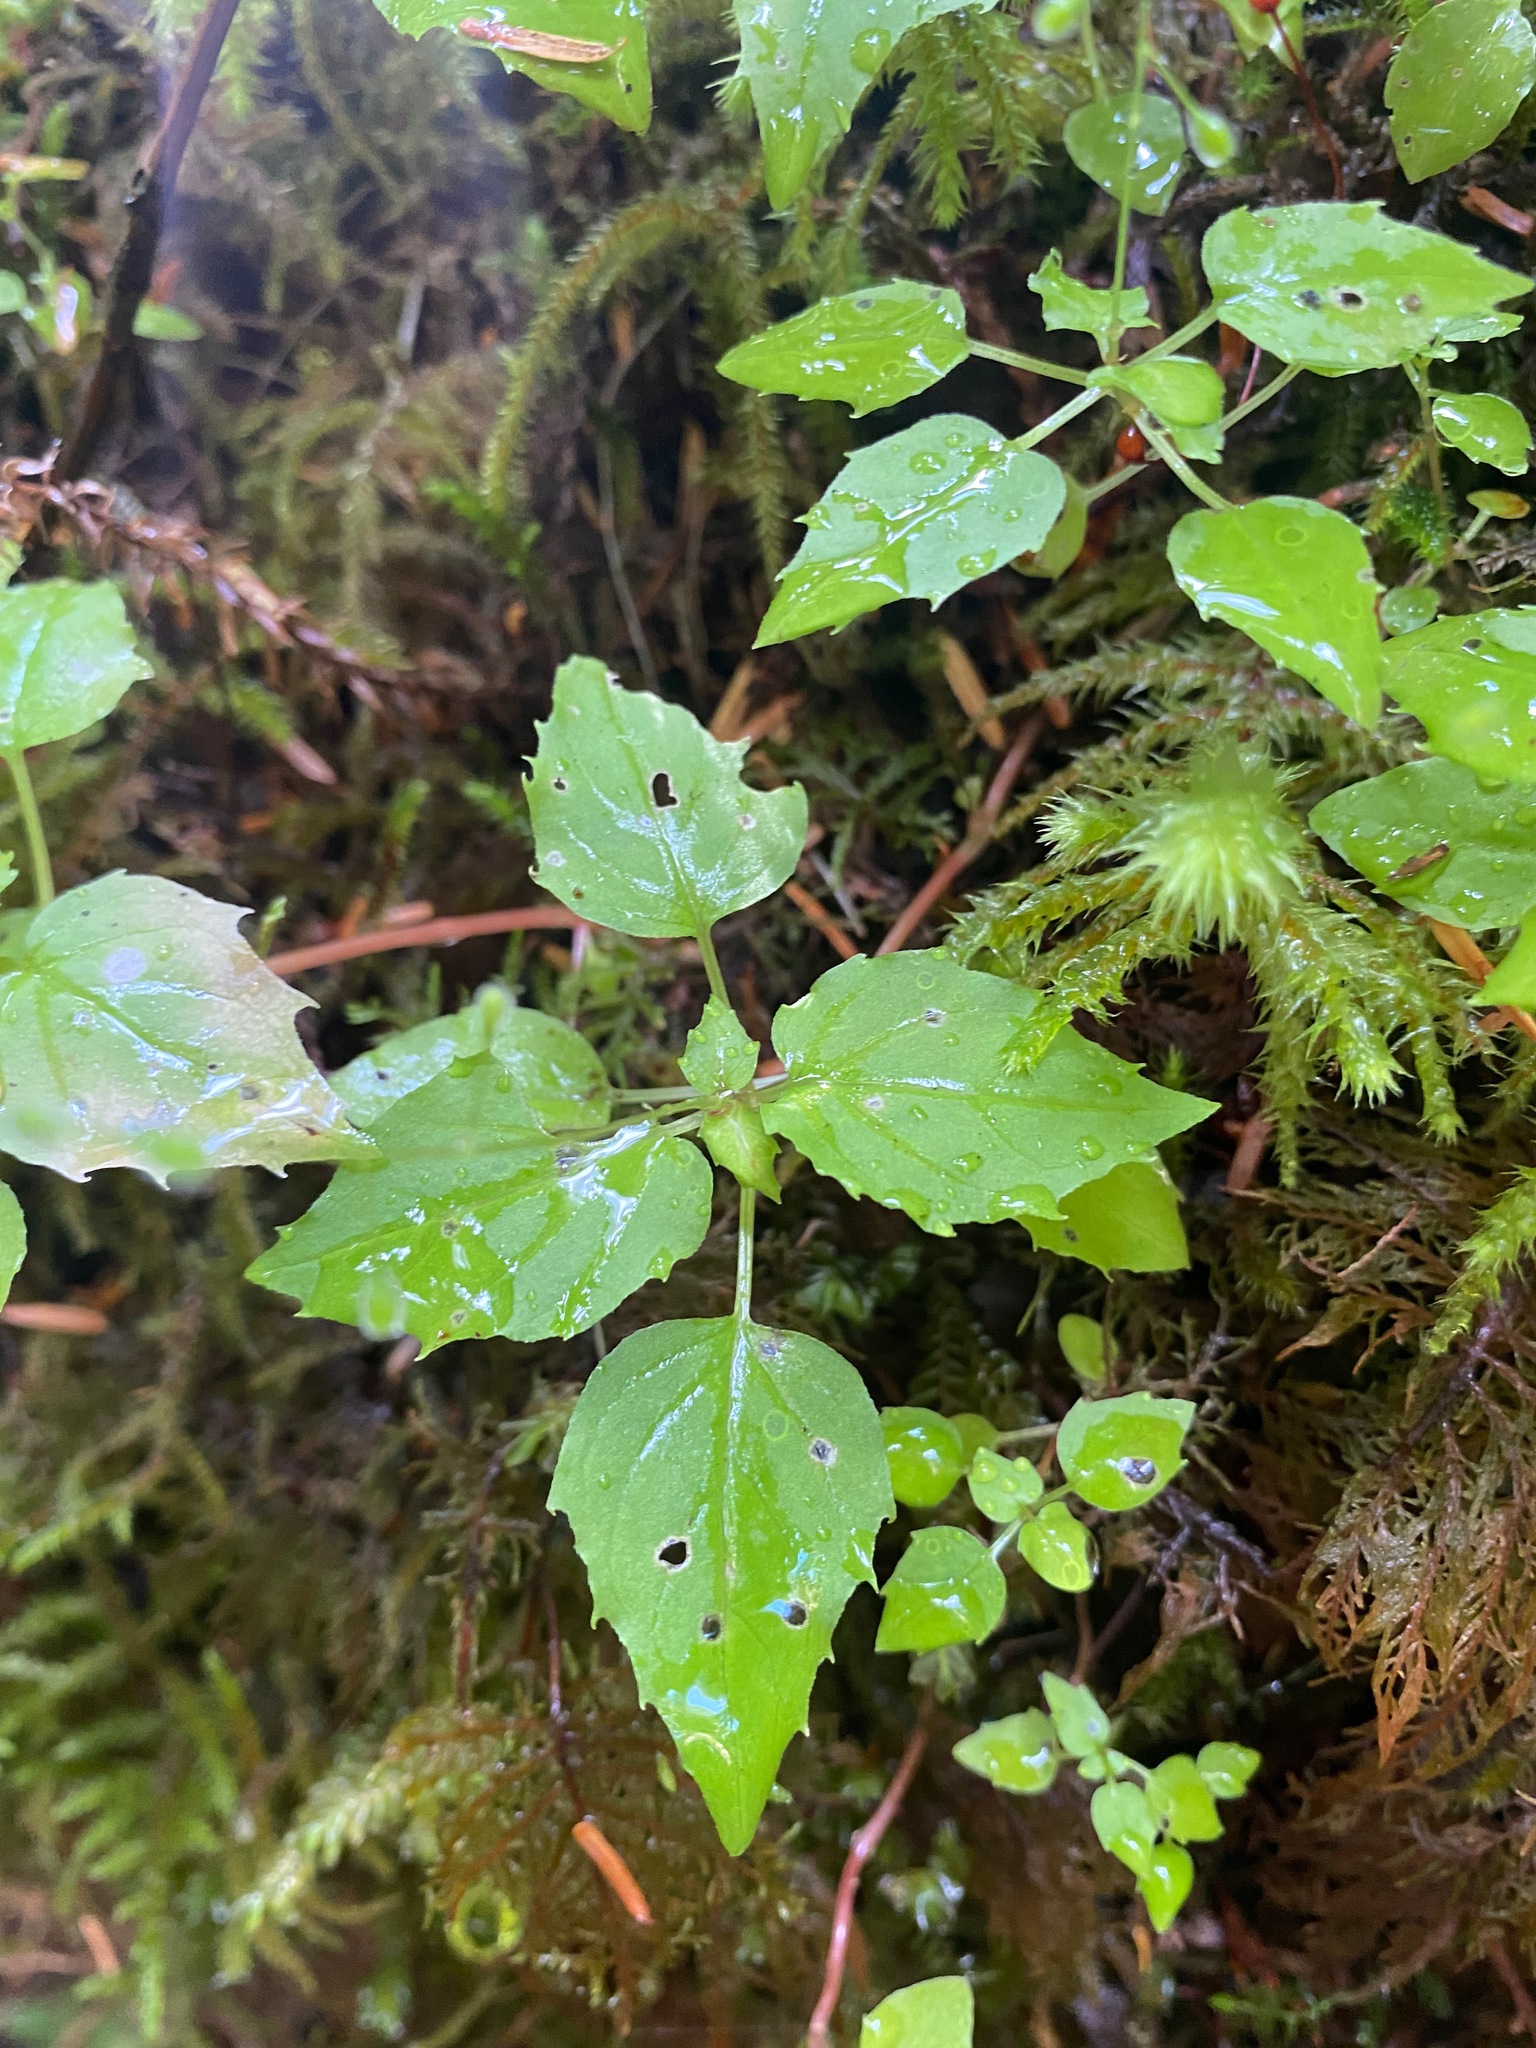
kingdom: Plantae
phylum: Tracheophyta
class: Magnoliopsida
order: Myrtales
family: Onagraceae
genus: Circaea
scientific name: Circaea alpina
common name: Alpine enchanter's-nightshade
